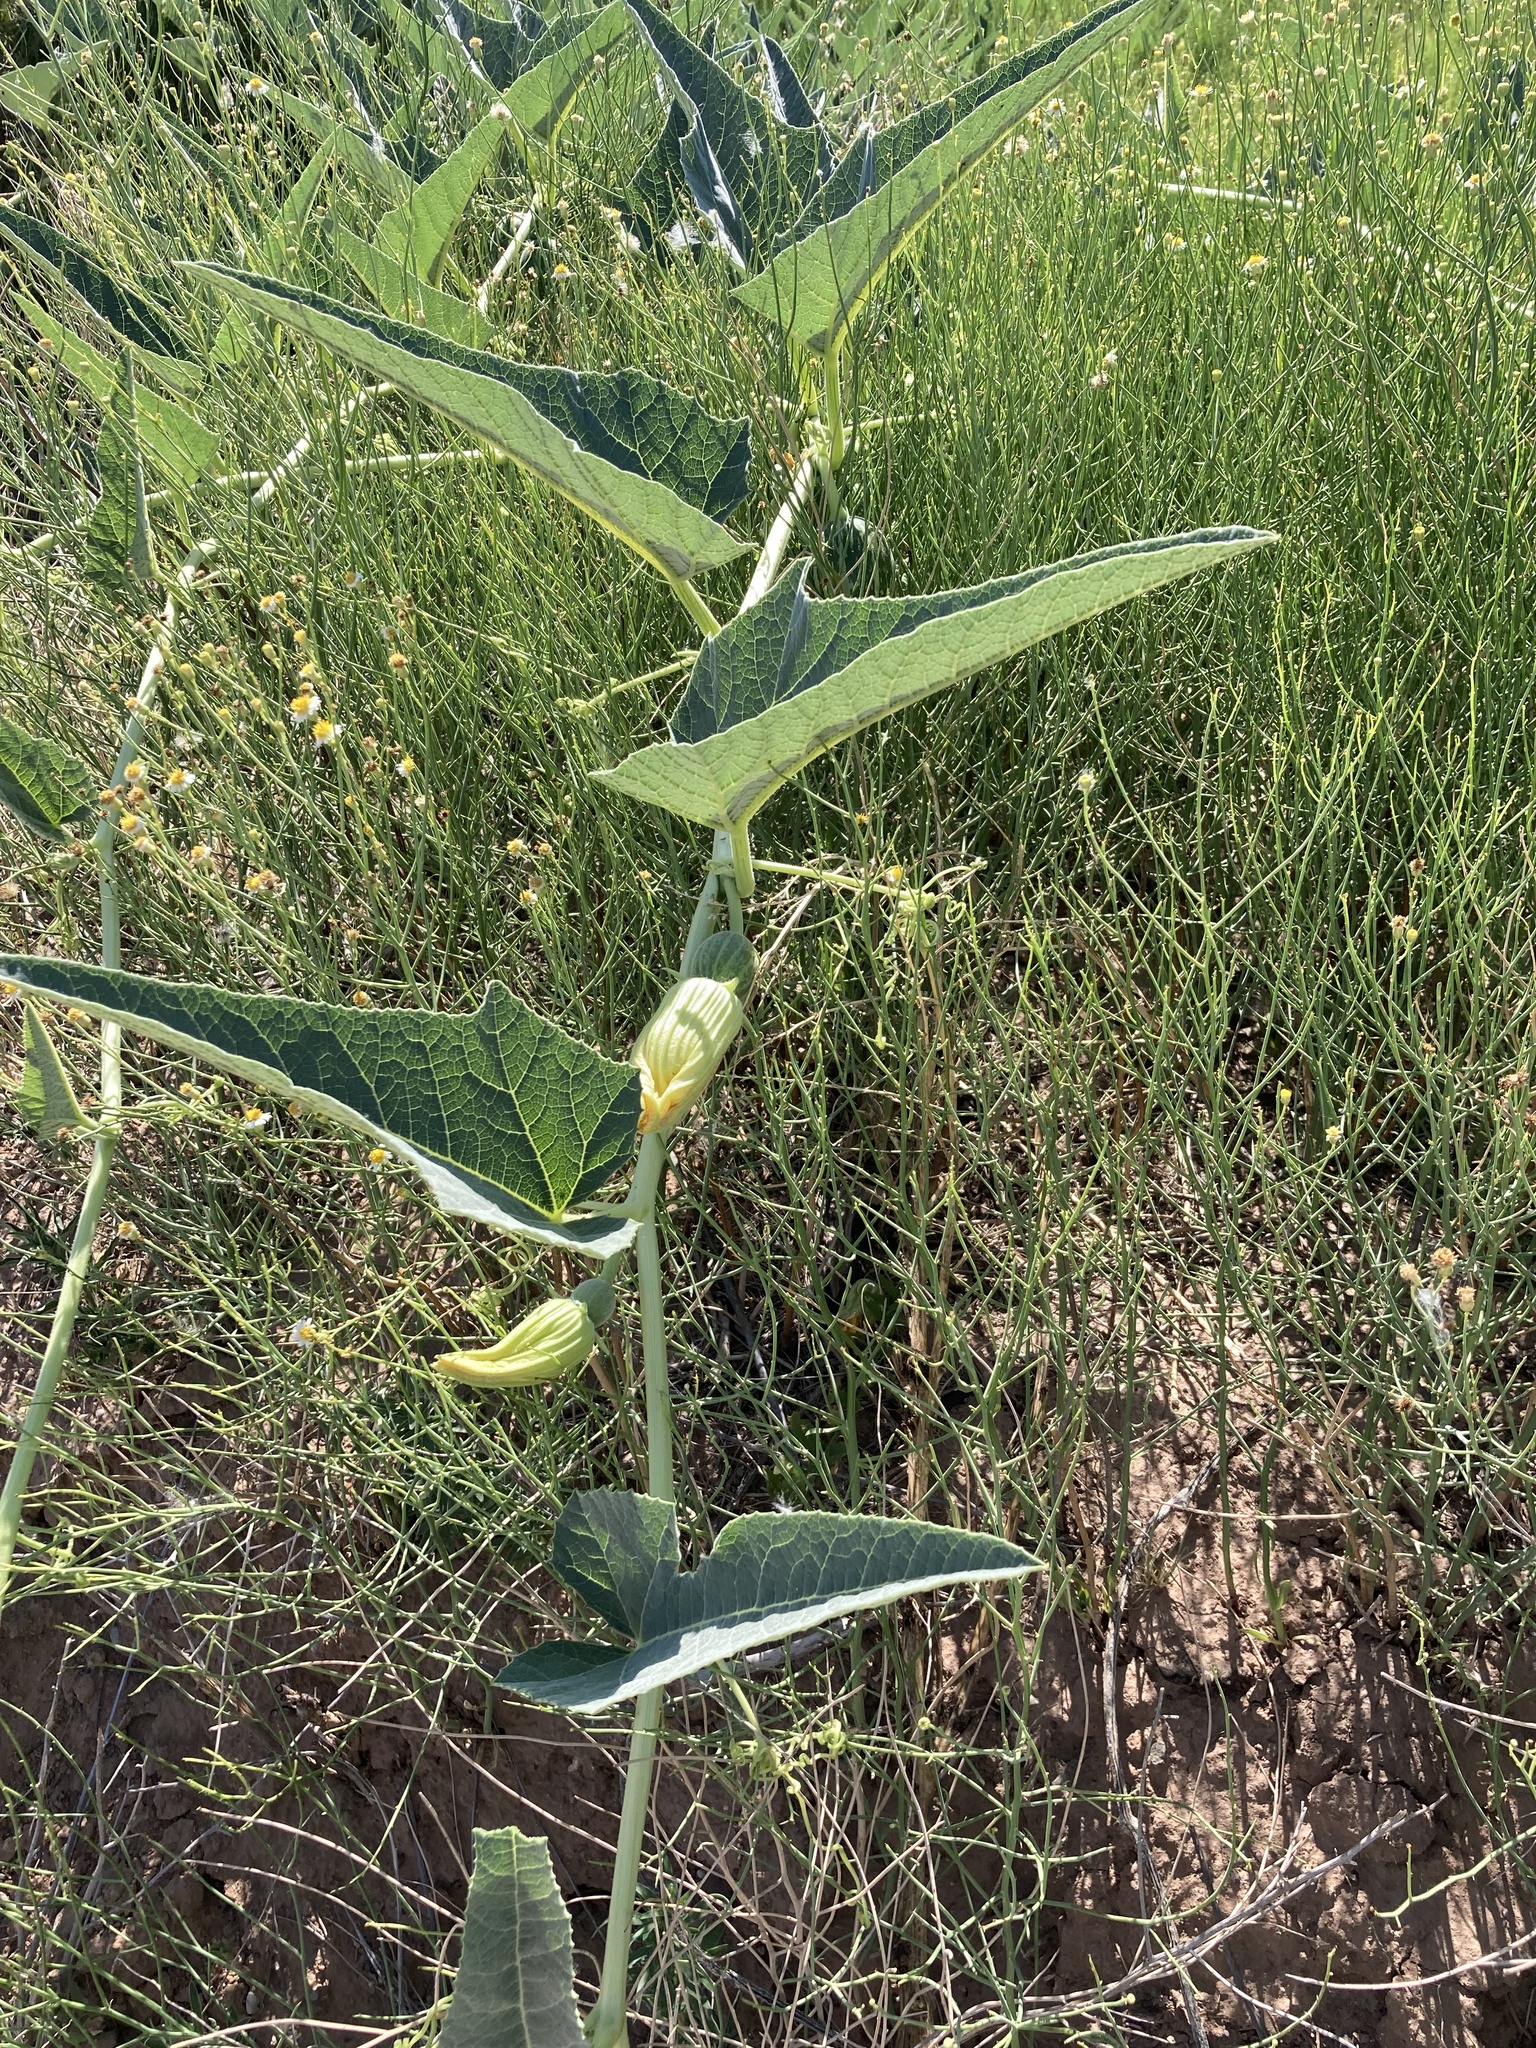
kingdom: Plantae
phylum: Tracheophyta
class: Magnoliopsida
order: Cucurbitales
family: Cucurbitaceae
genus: Cucurbita
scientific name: Cucurbita foetidissima
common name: Buffalo gourd
